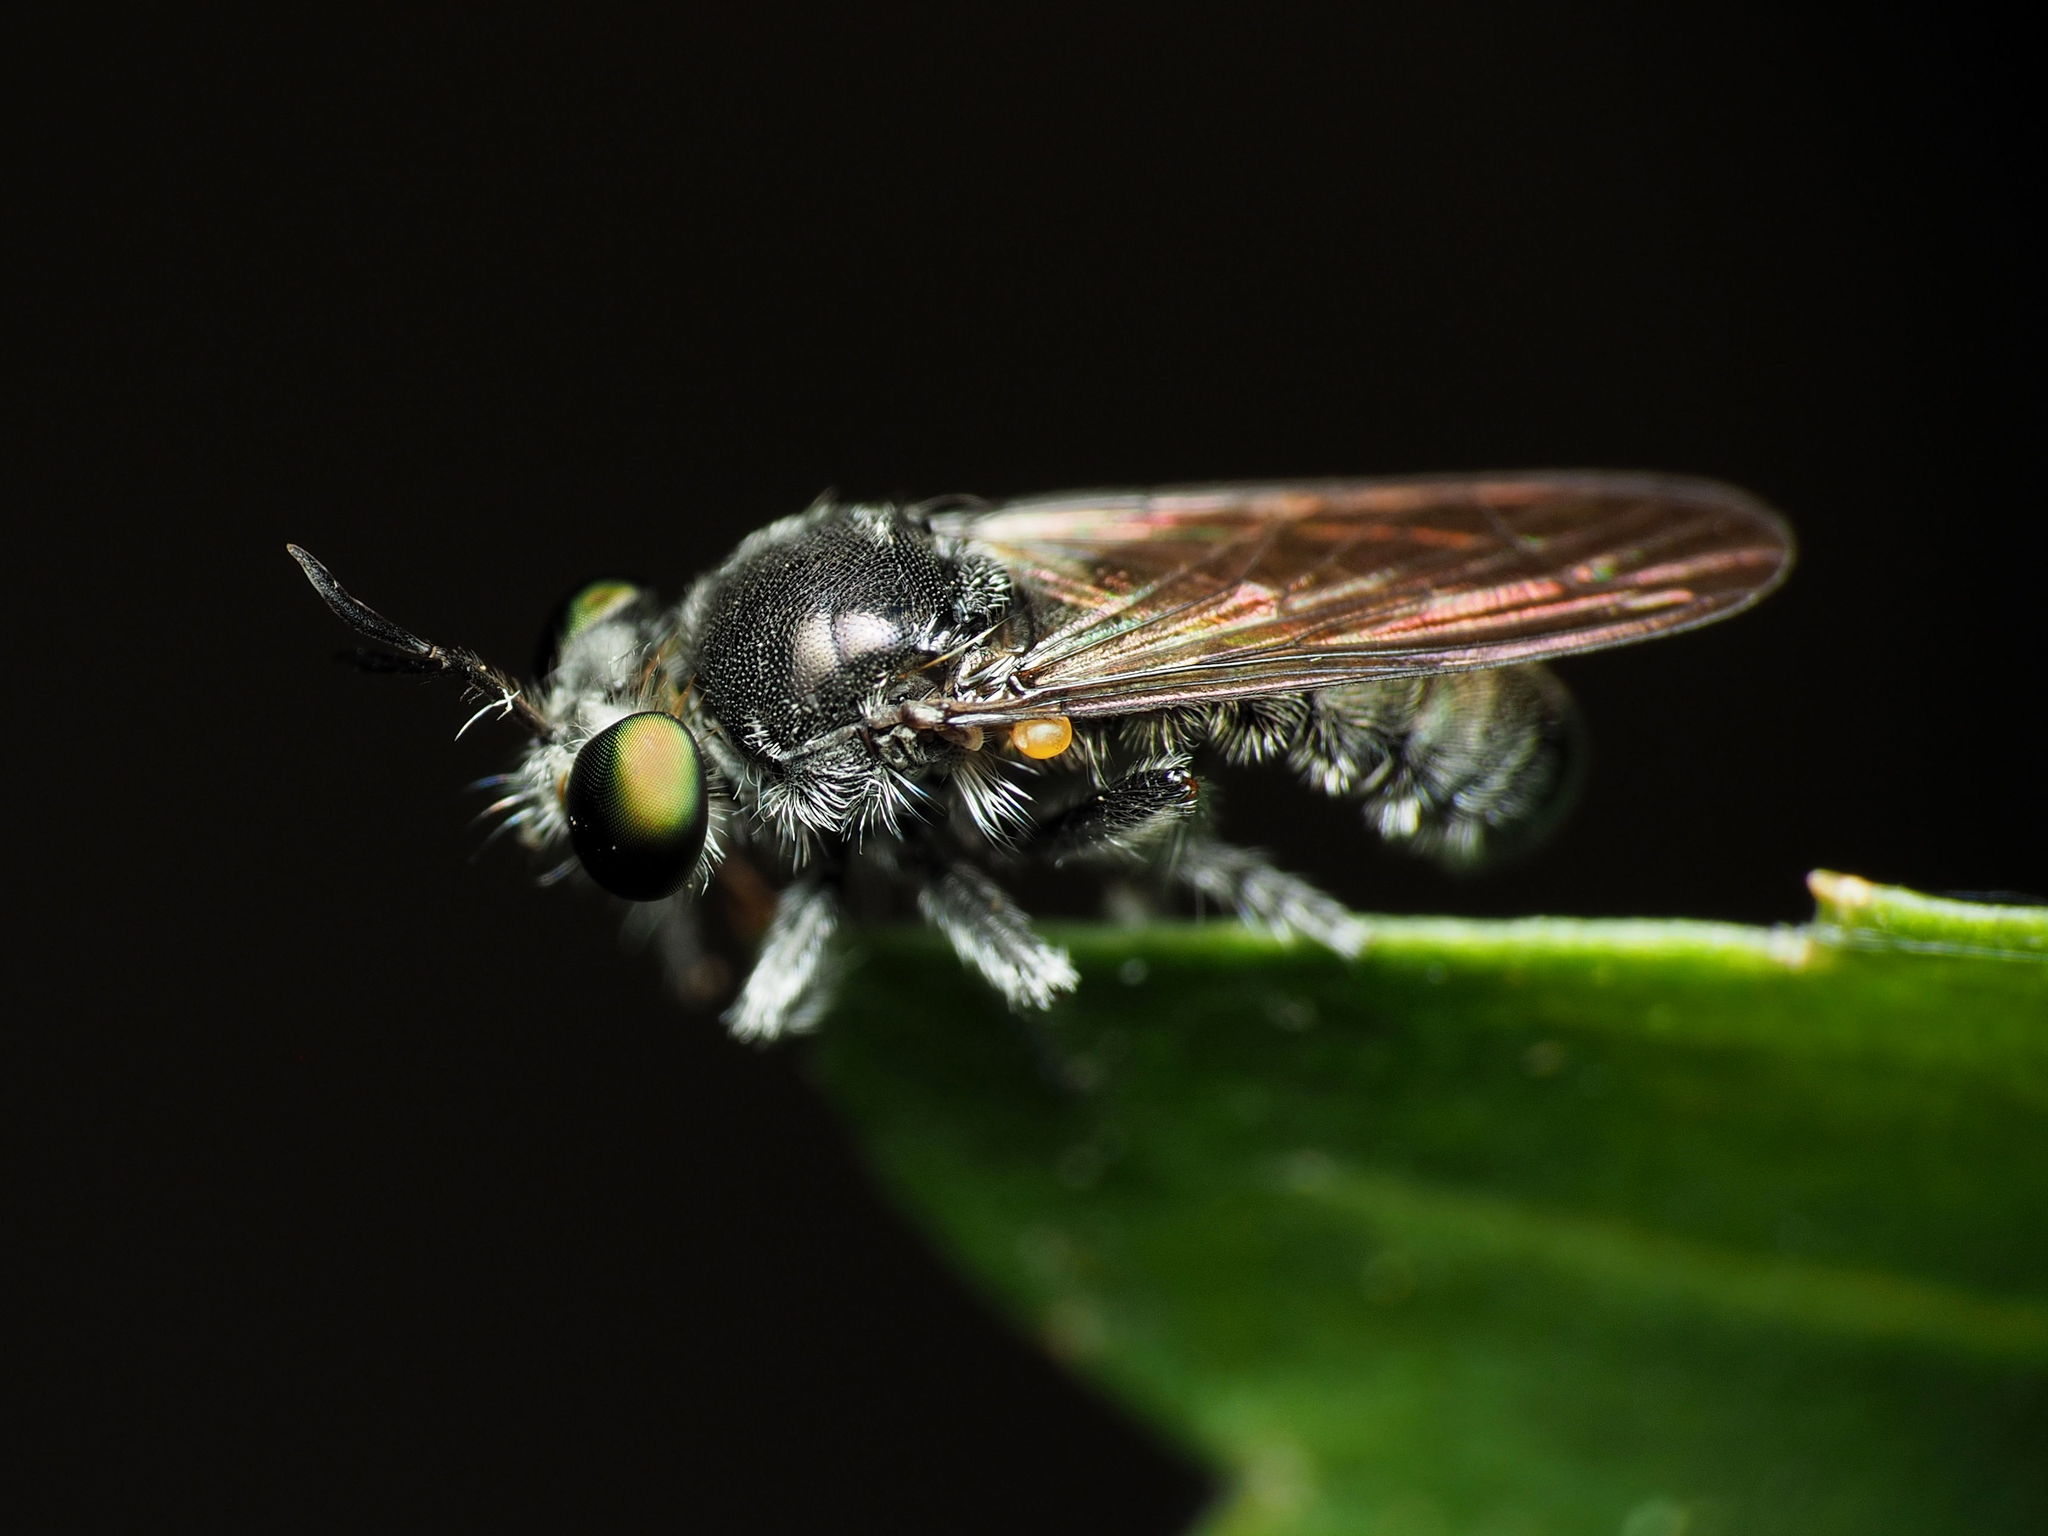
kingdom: Animalia
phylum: Arthropoda
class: Insecta
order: Diptera
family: Asilidae
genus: Cerotainia
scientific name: Cerotainia albipilosa
